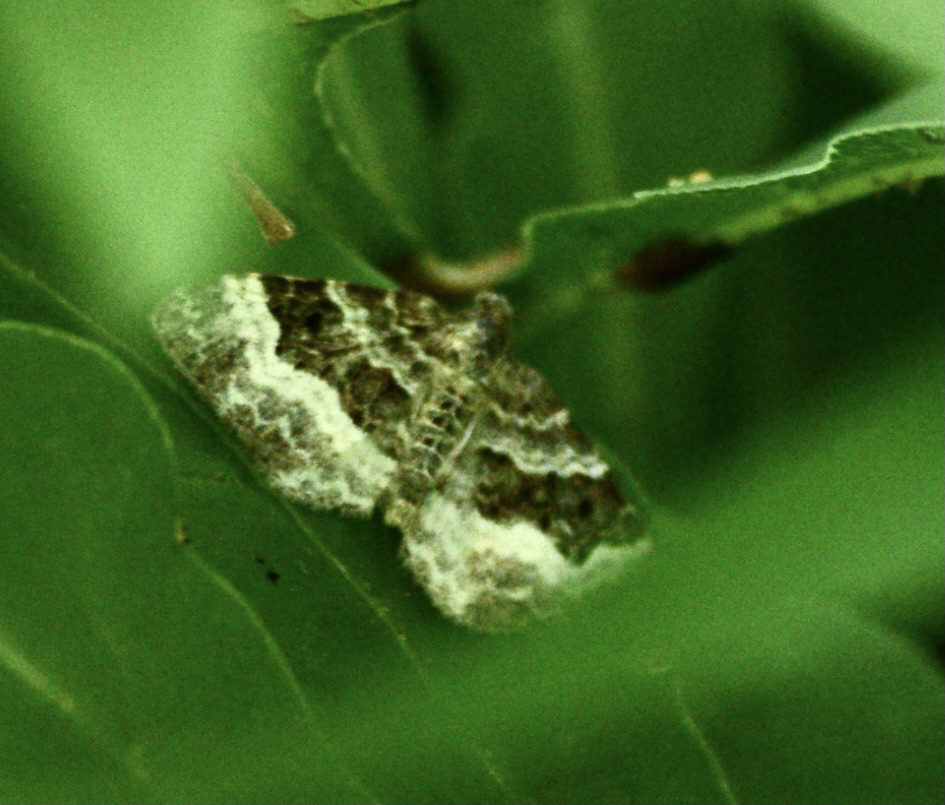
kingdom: Animalia
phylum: Arthropoda
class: Insecta
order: Lepidoptera
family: Geometridae
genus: Epirrhoe
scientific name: Epirrhoe alternata
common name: Common carpet
